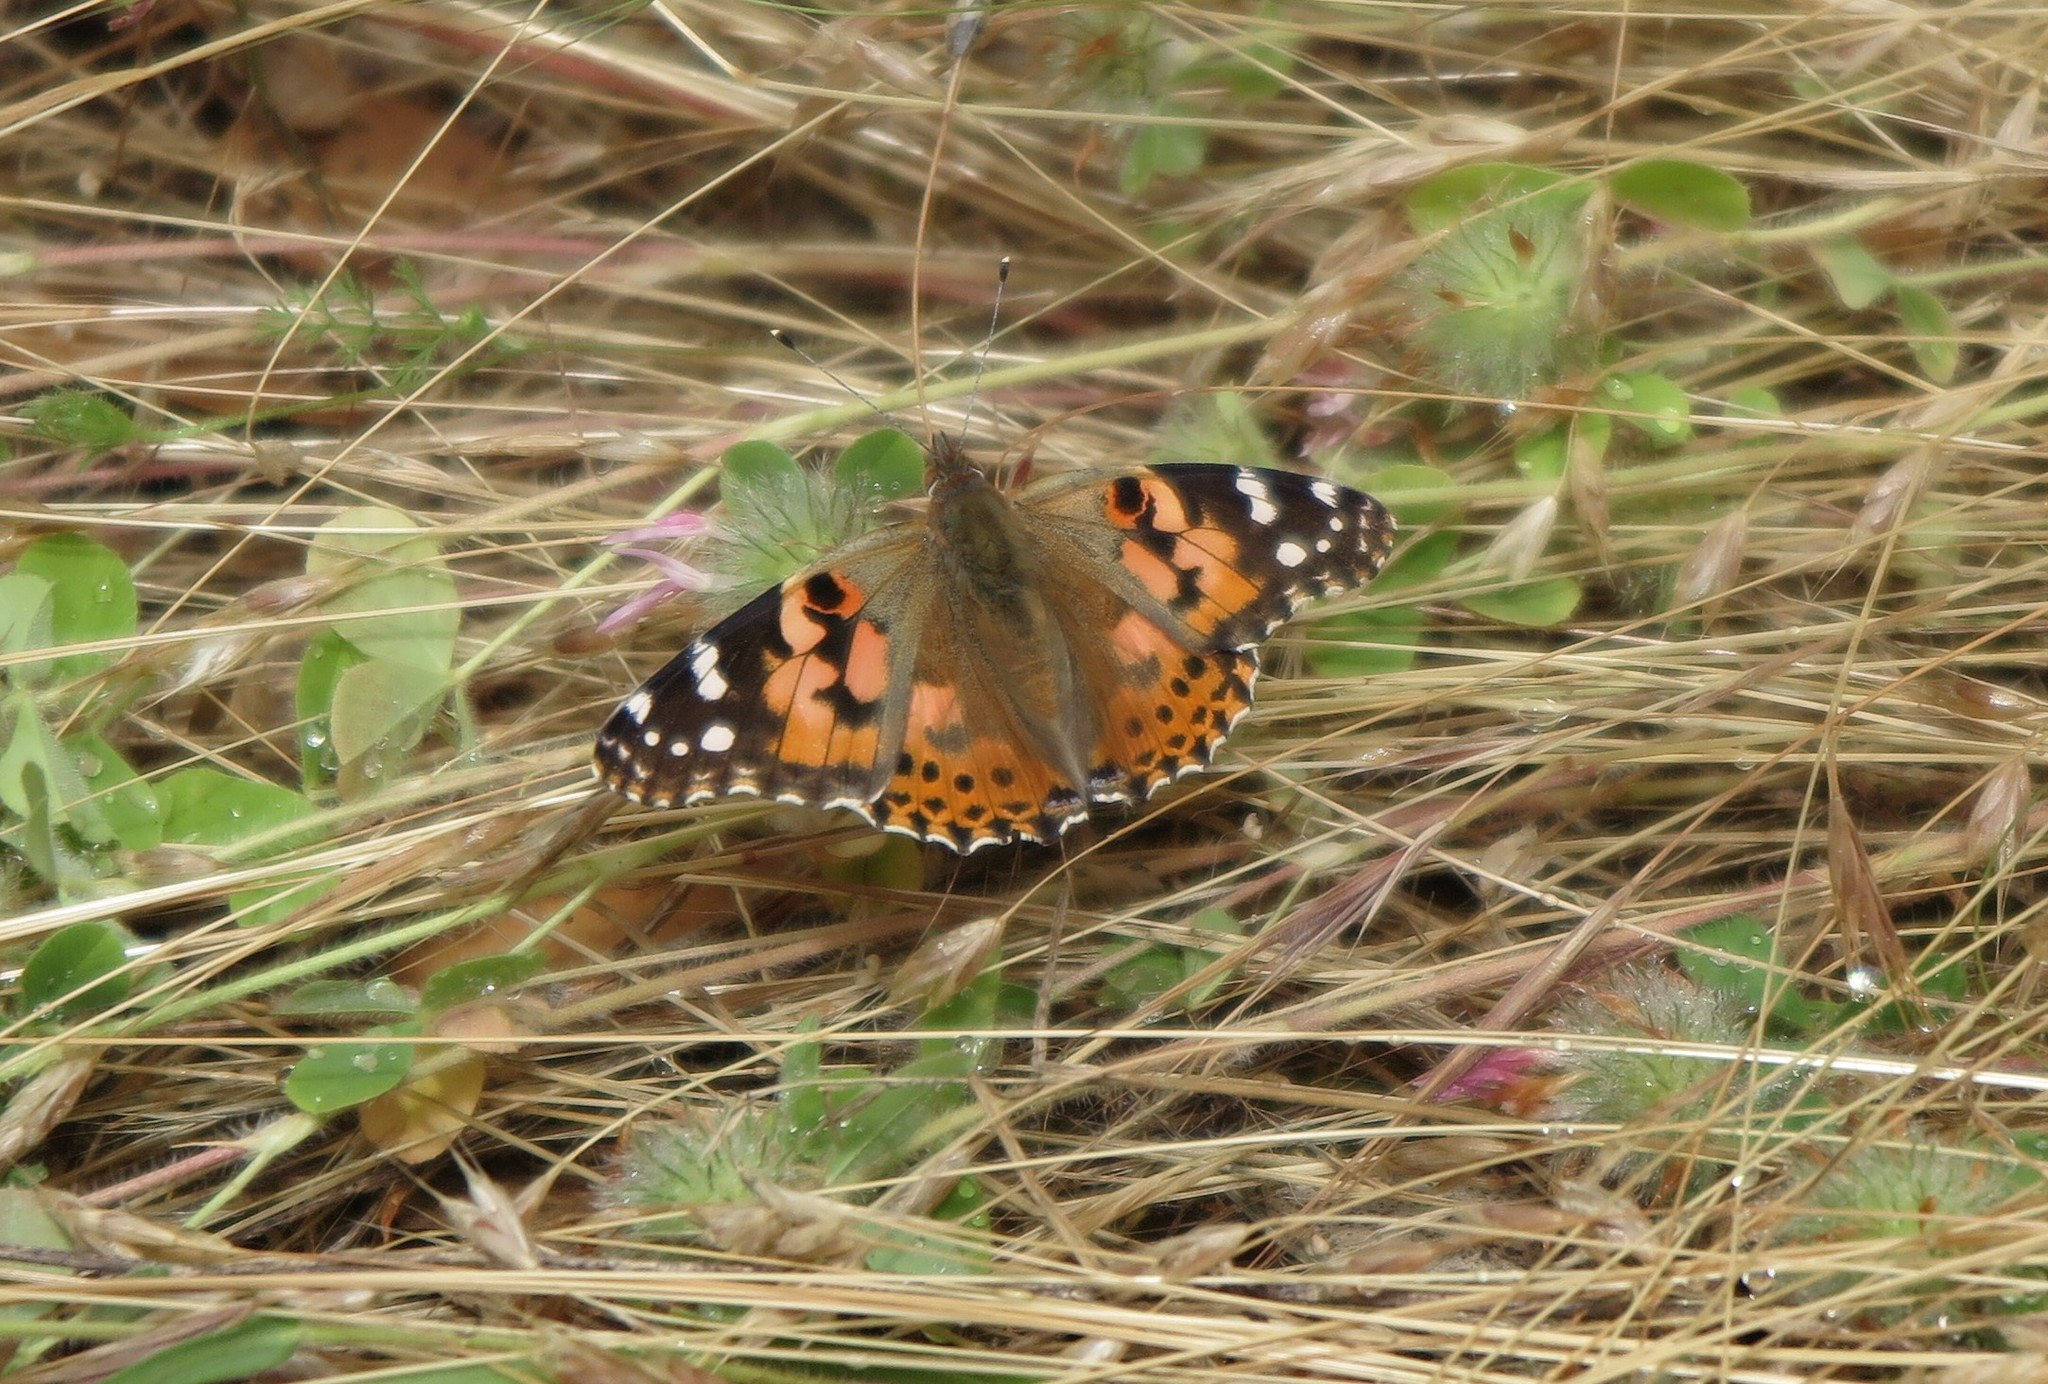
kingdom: Animalia
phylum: Arthropoda
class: Insecta
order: Lepidoptera
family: Nymphalidae
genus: Vanessa
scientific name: Vanessa cardui
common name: Painted lady
